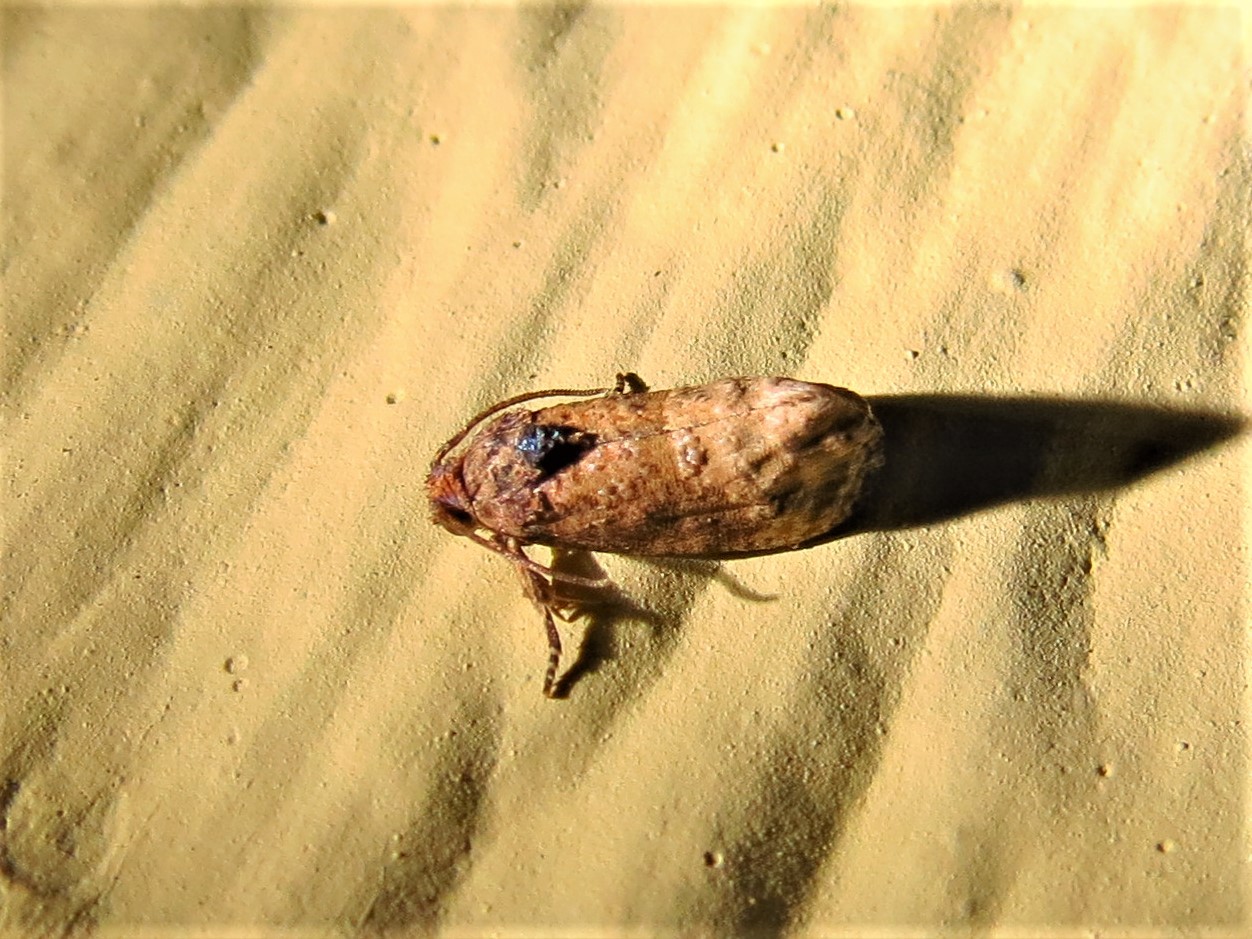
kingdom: Animalia
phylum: Arthropoda
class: Insecta
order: Lepidoptera
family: Tortricidae
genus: Ecdytolopha
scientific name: Ecdytolopha mana
